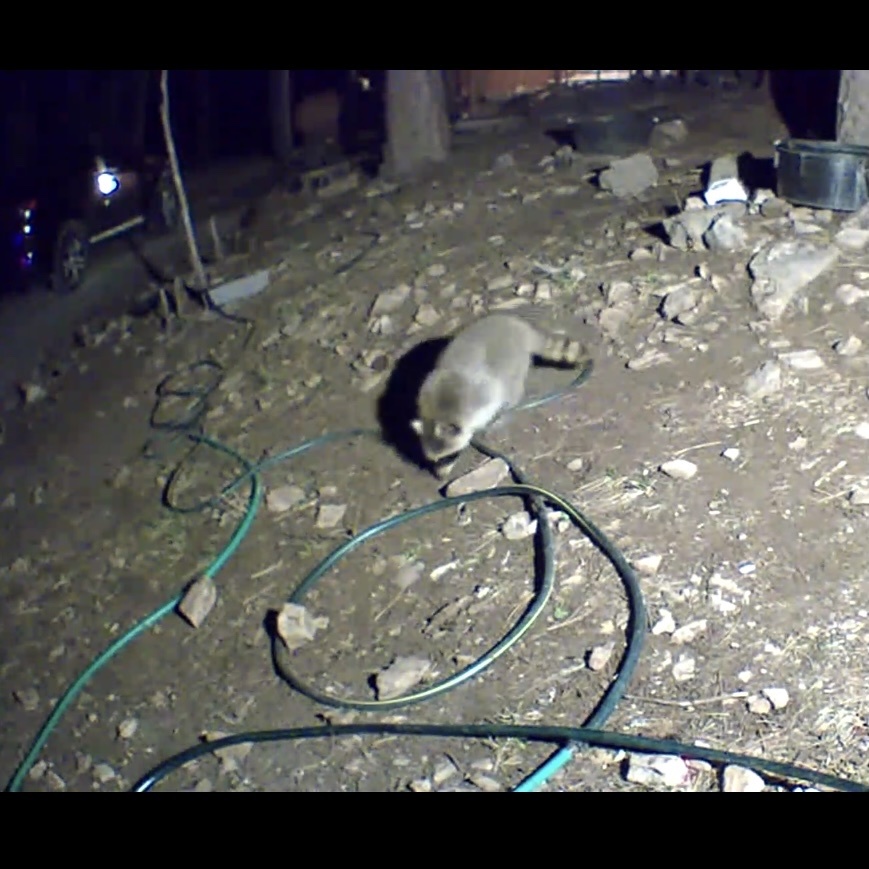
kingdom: Animalia
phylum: Chordata
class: Mammalia
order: Carnivora
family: Procyonidae
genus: Procyon
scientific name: Procyon lotor
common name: Raccoon
